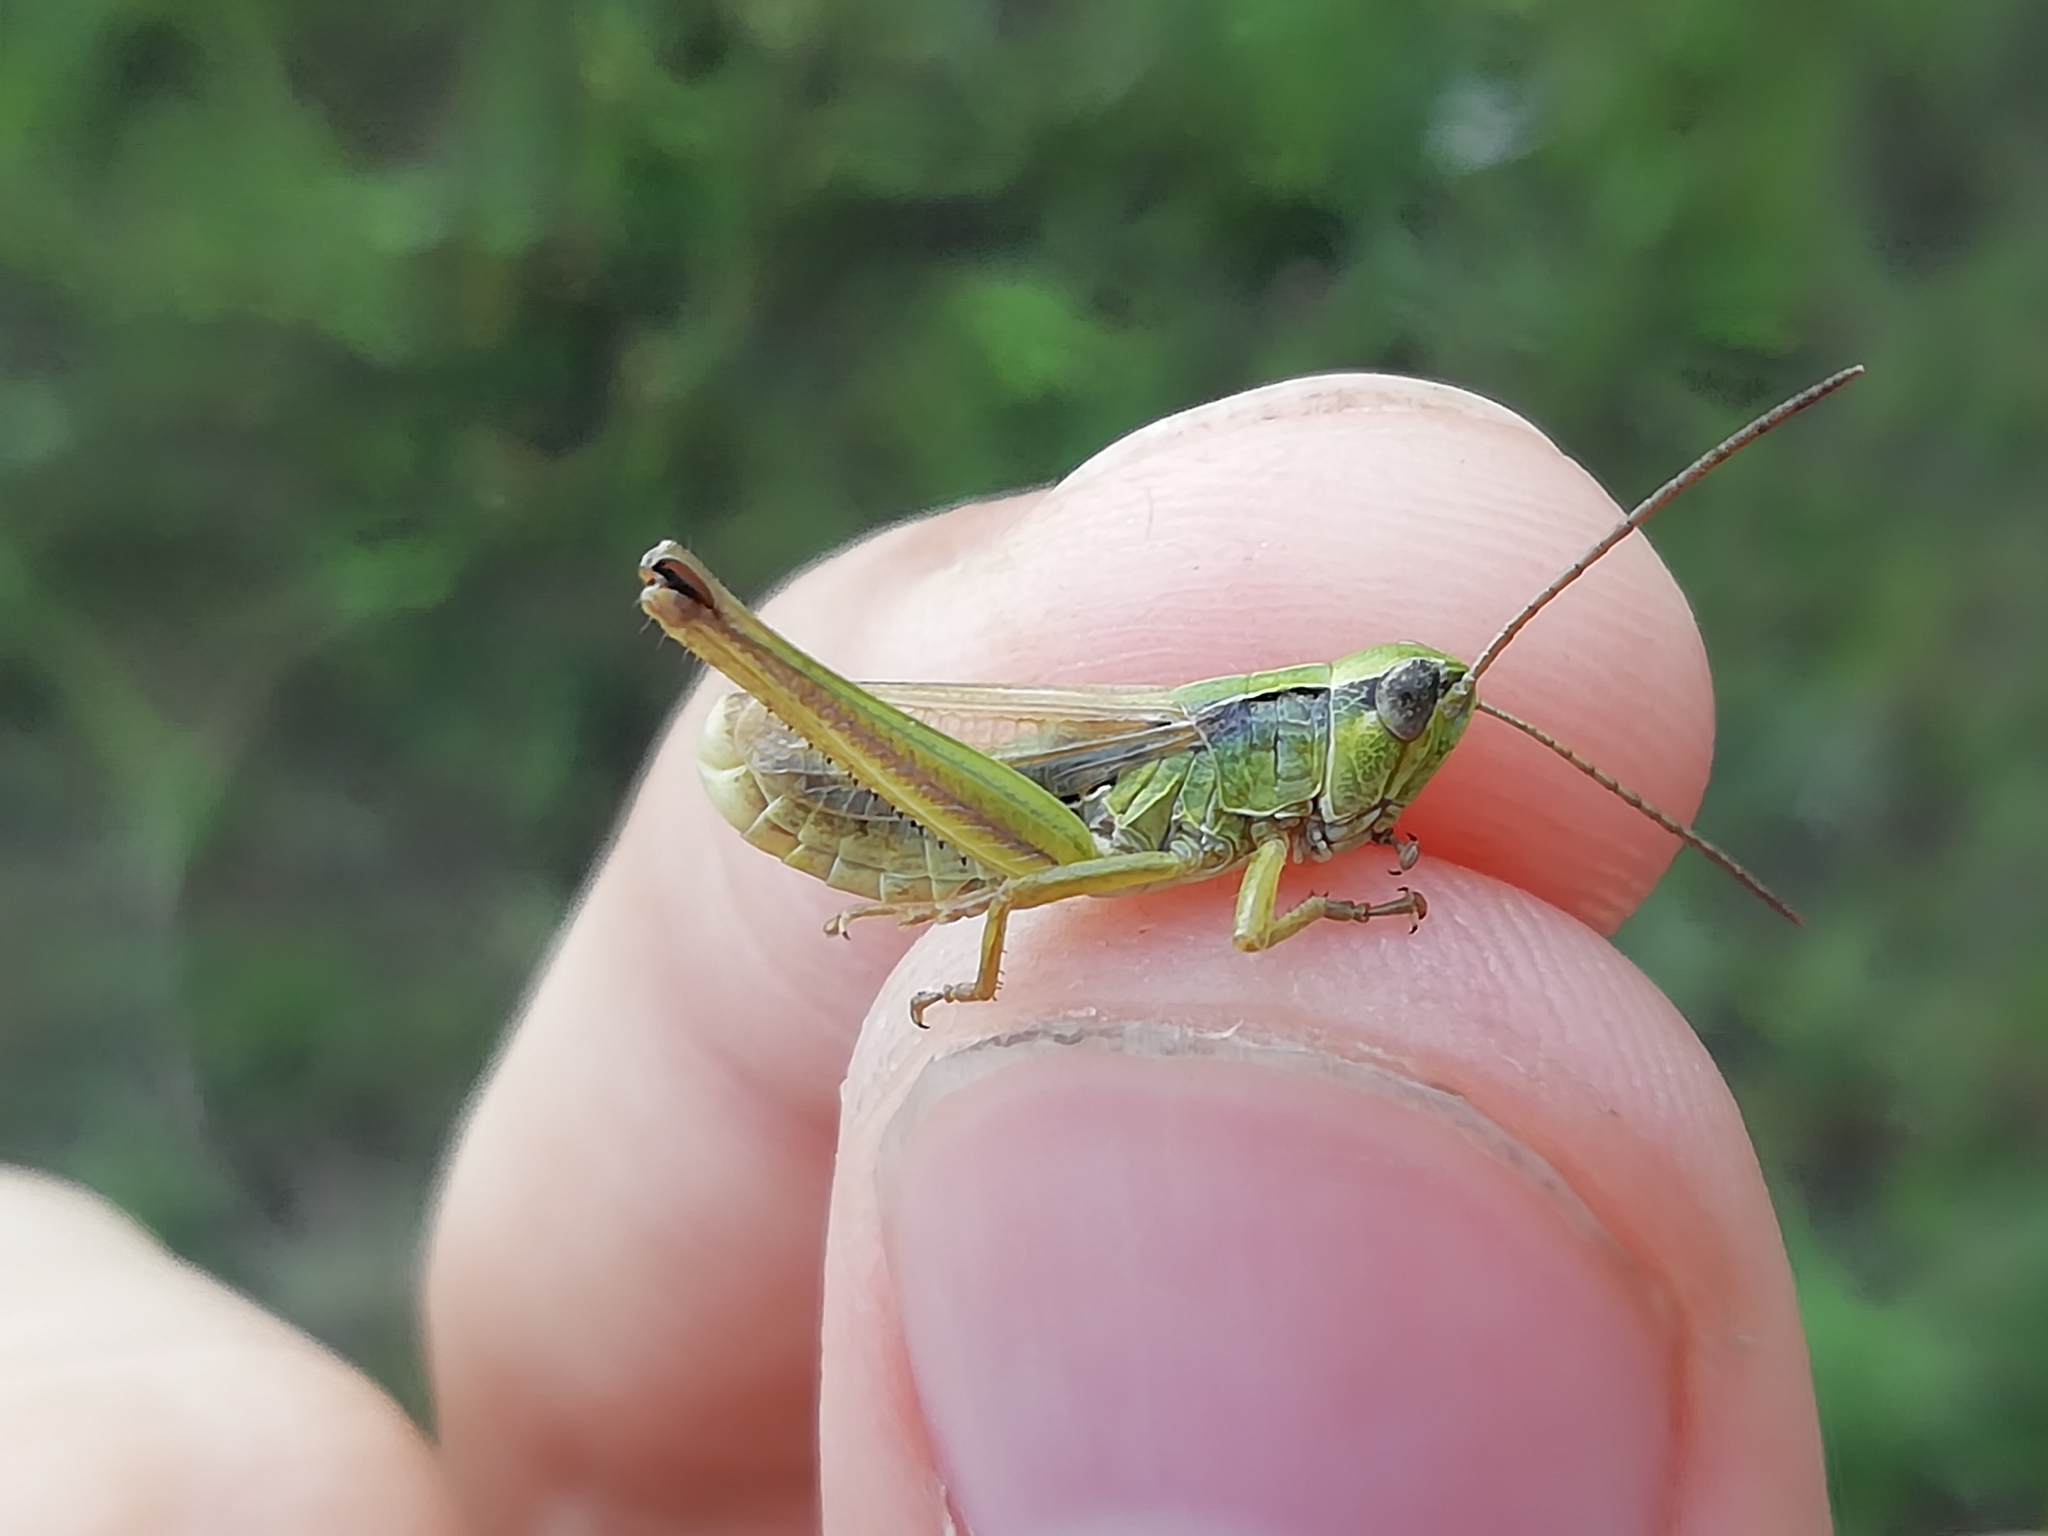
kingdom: Animalia
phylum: Arthropoda
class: Insecta
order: Orthoptera
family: Acrididae
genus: Chorthippus
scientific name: Chorthippus fallax
